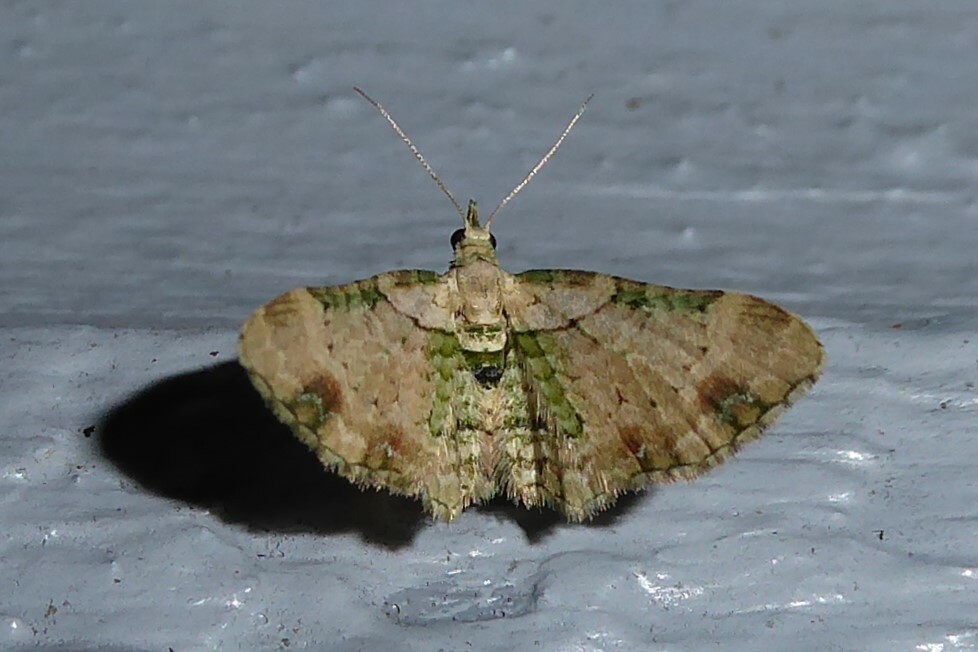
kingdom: Animalia
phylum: Arthropoda
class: Insecta
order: Lepidoptera
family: Geometridae
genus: Chloroclystis
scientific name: Chloroclystis
